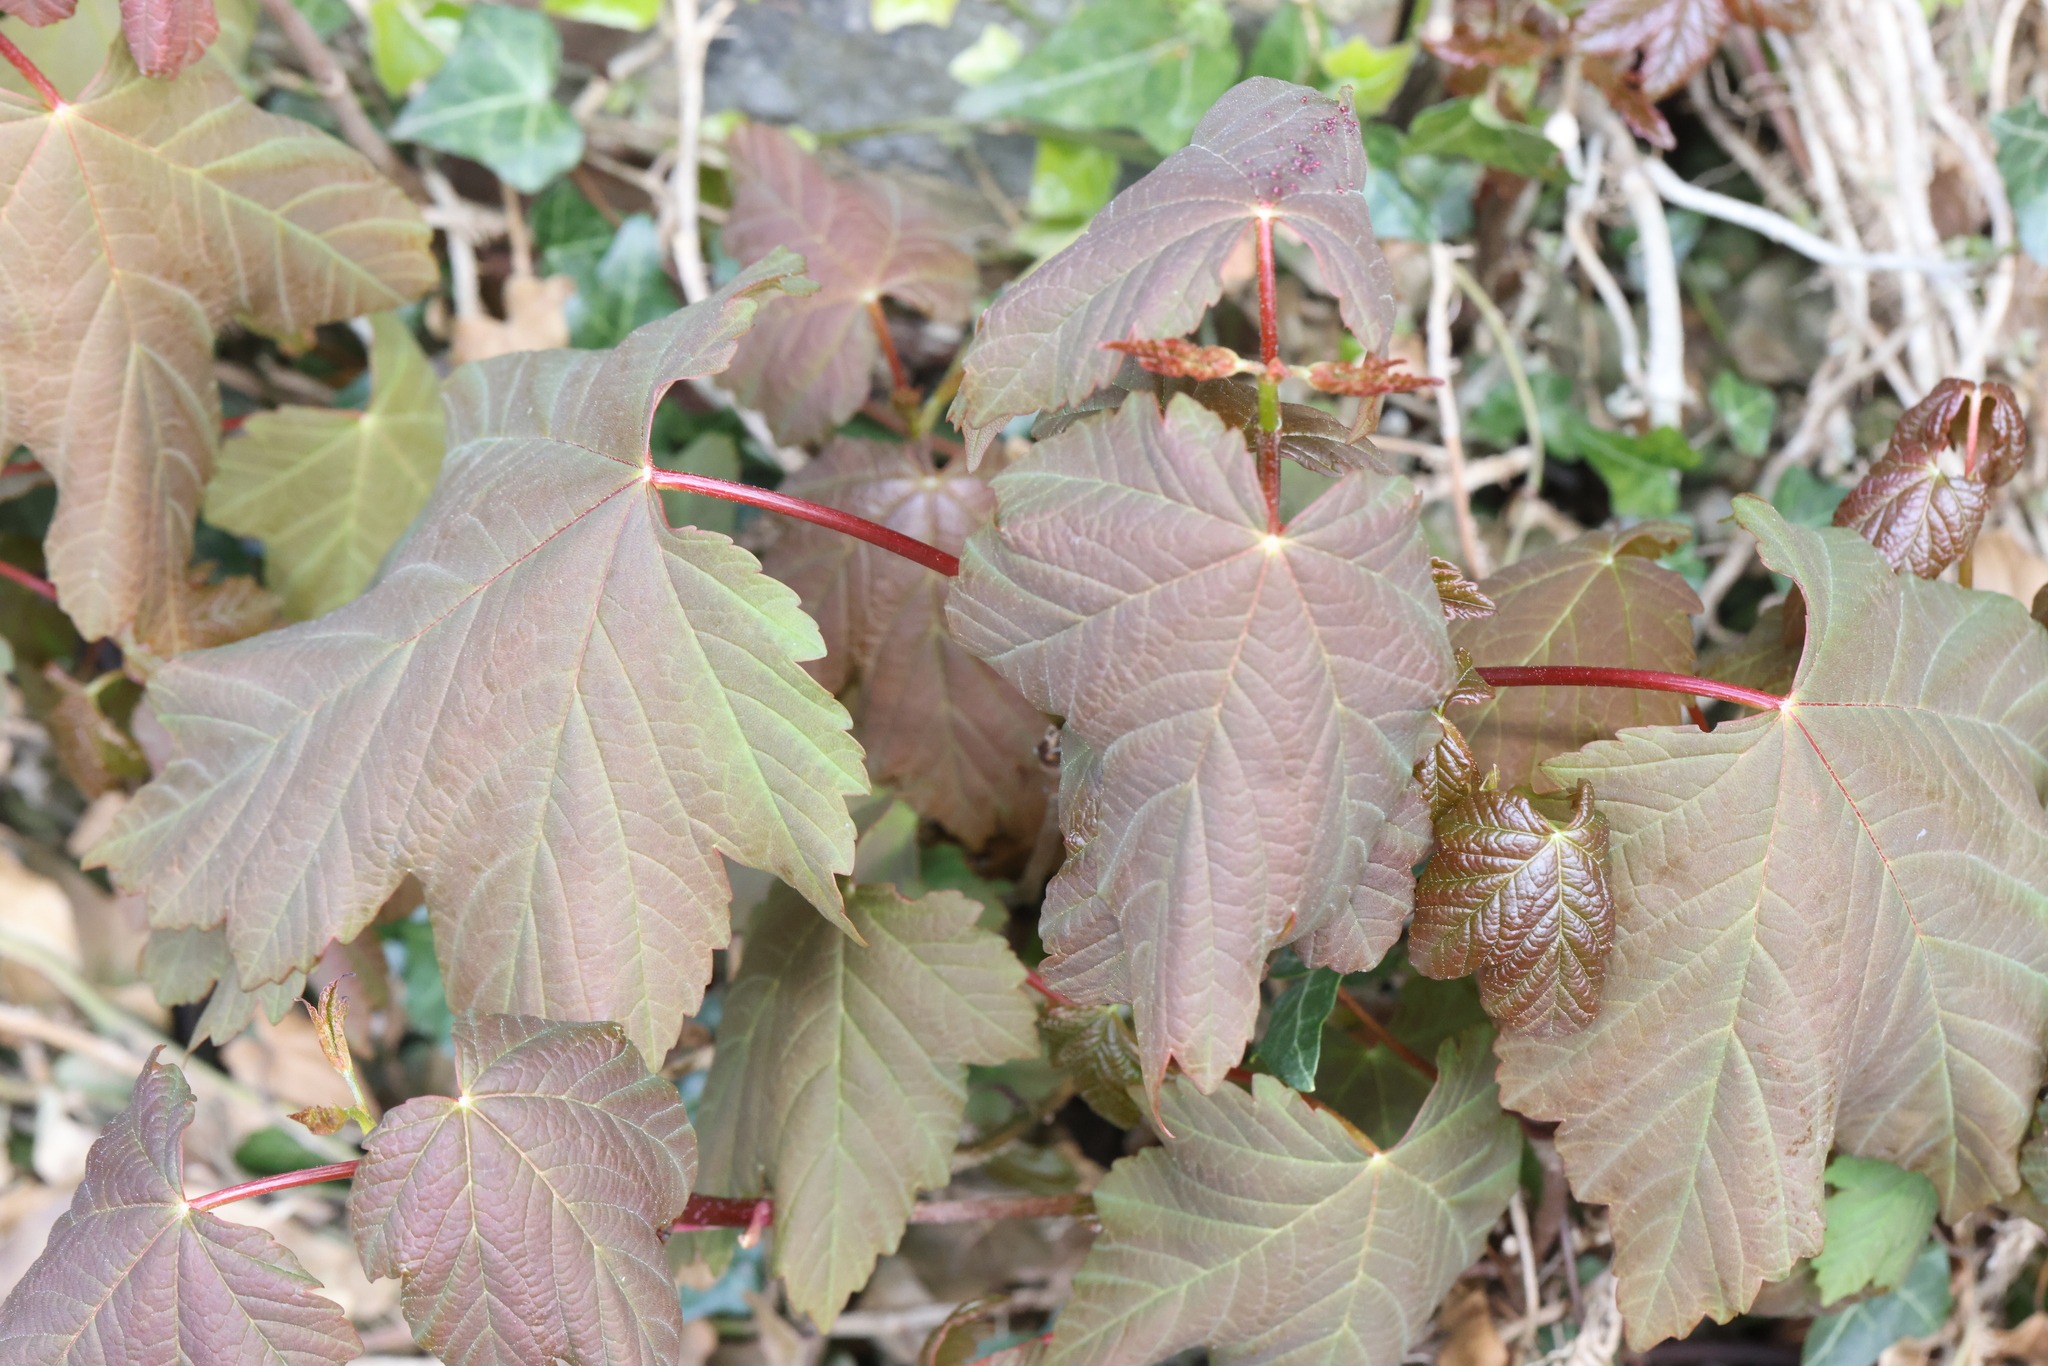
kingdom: Plantae
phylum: Tracheophyta
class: Magnoliopsida
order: Sapindales
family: Sapindaceae
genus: Acer
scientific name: Acer pseudoplatanus
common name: Sycamore
